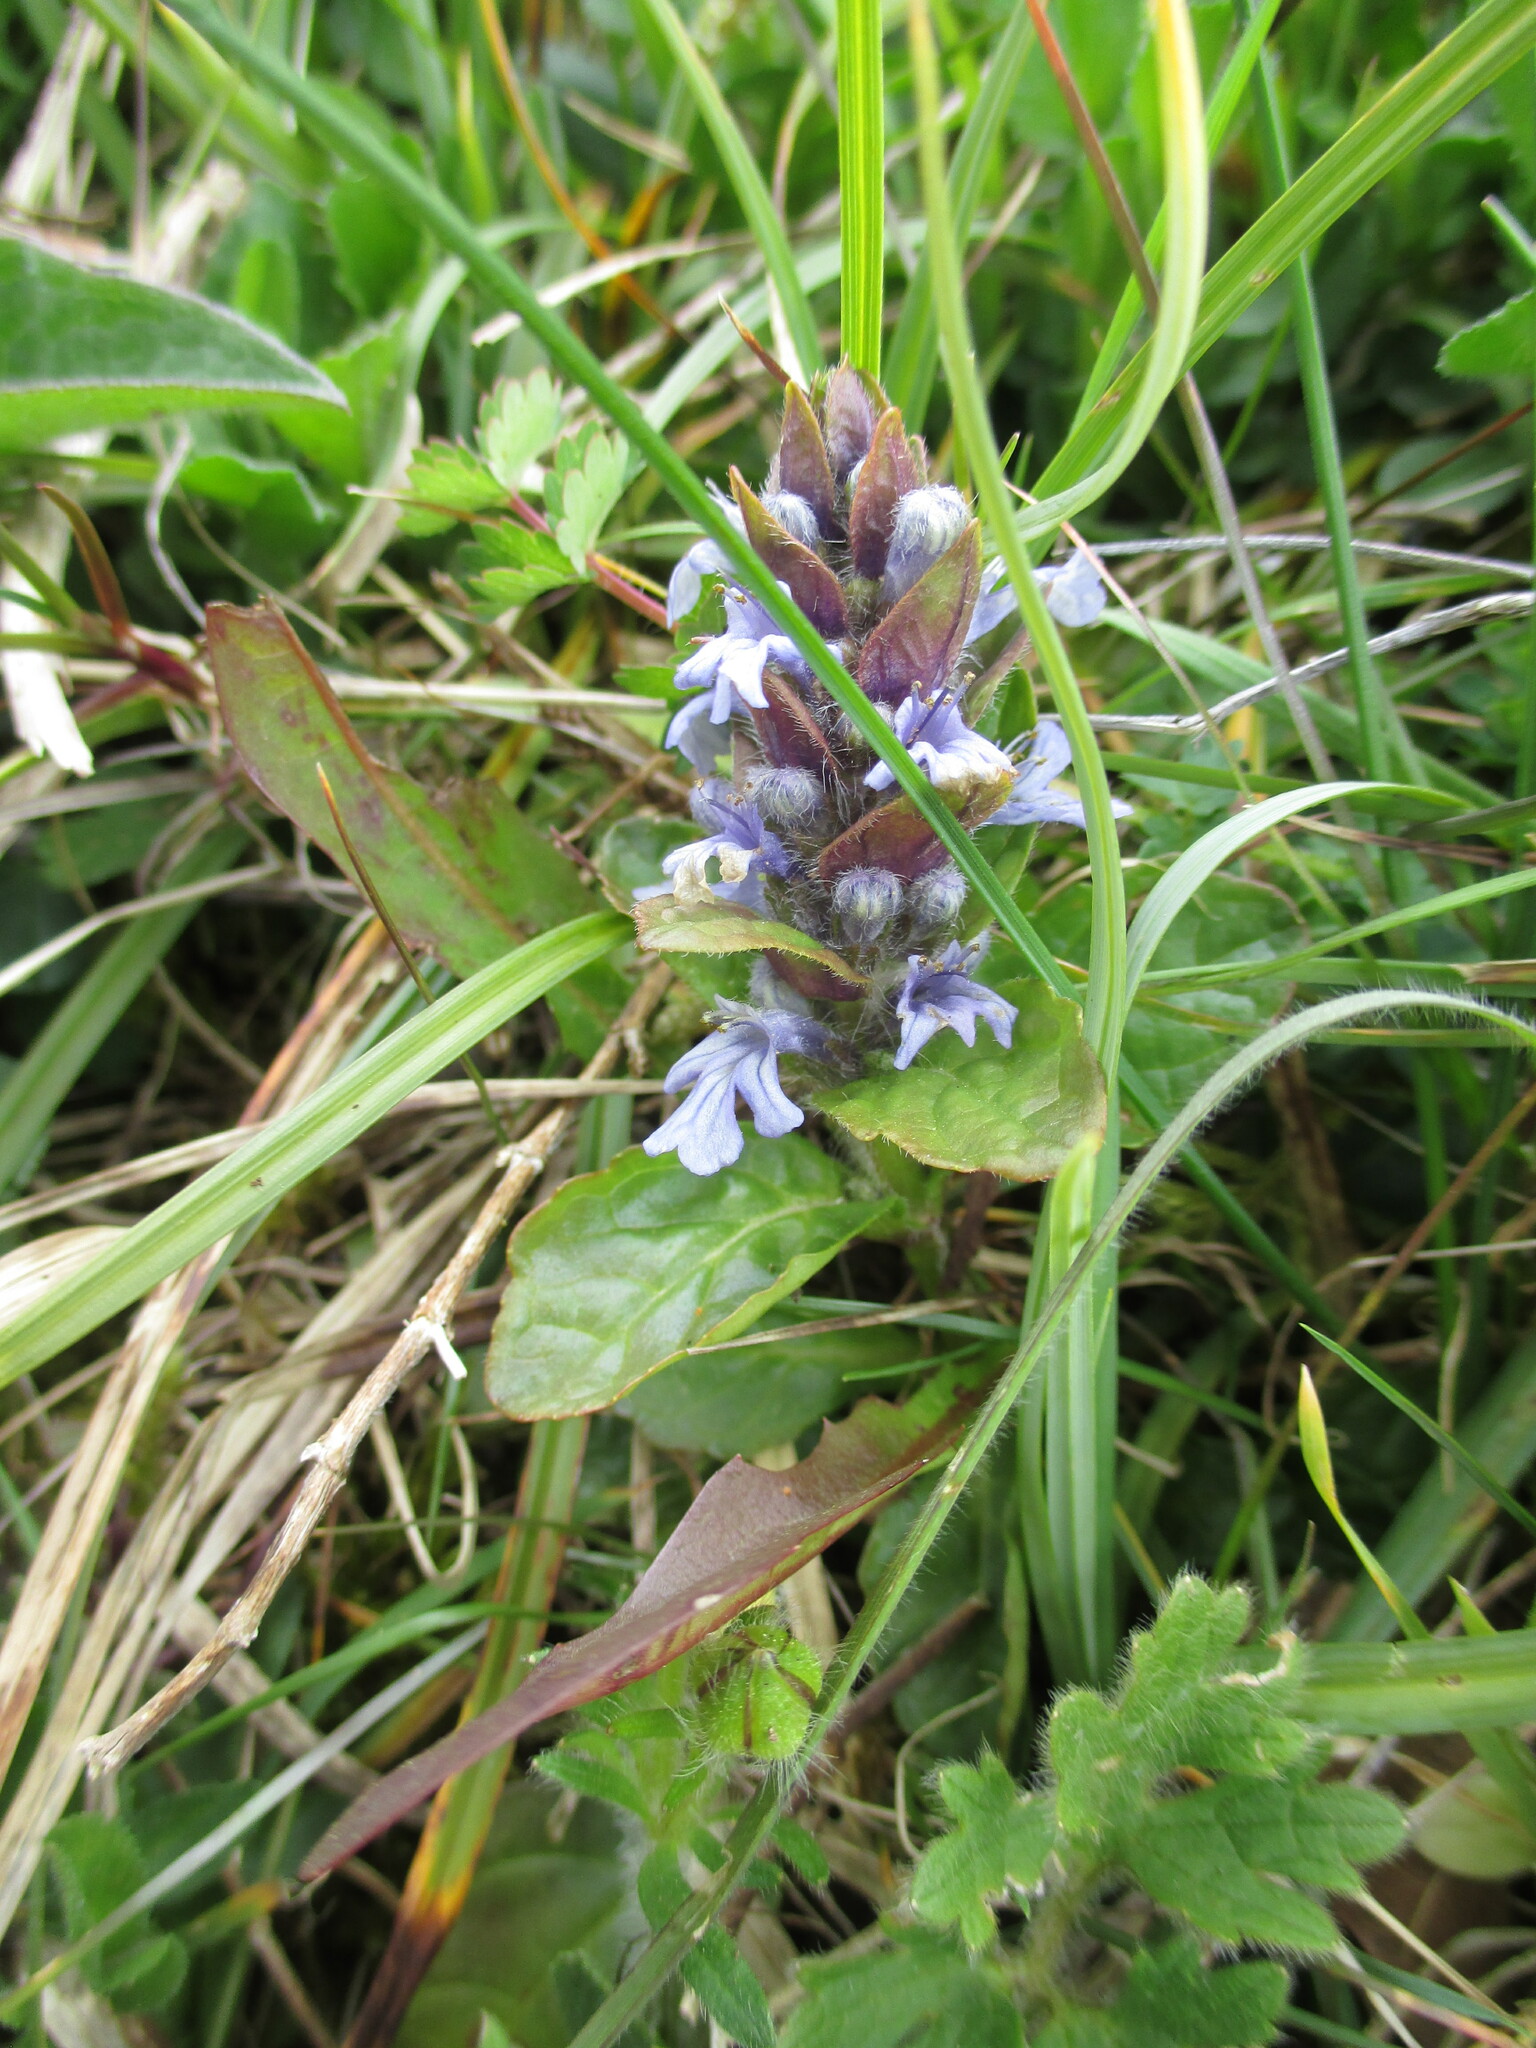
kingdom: Plantae
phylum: Tracheophyta
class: Magnoliopsida
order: Lamiales
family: Lamiaceae
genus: Ajuga
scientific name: Ajuga reptans
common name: Bugle
